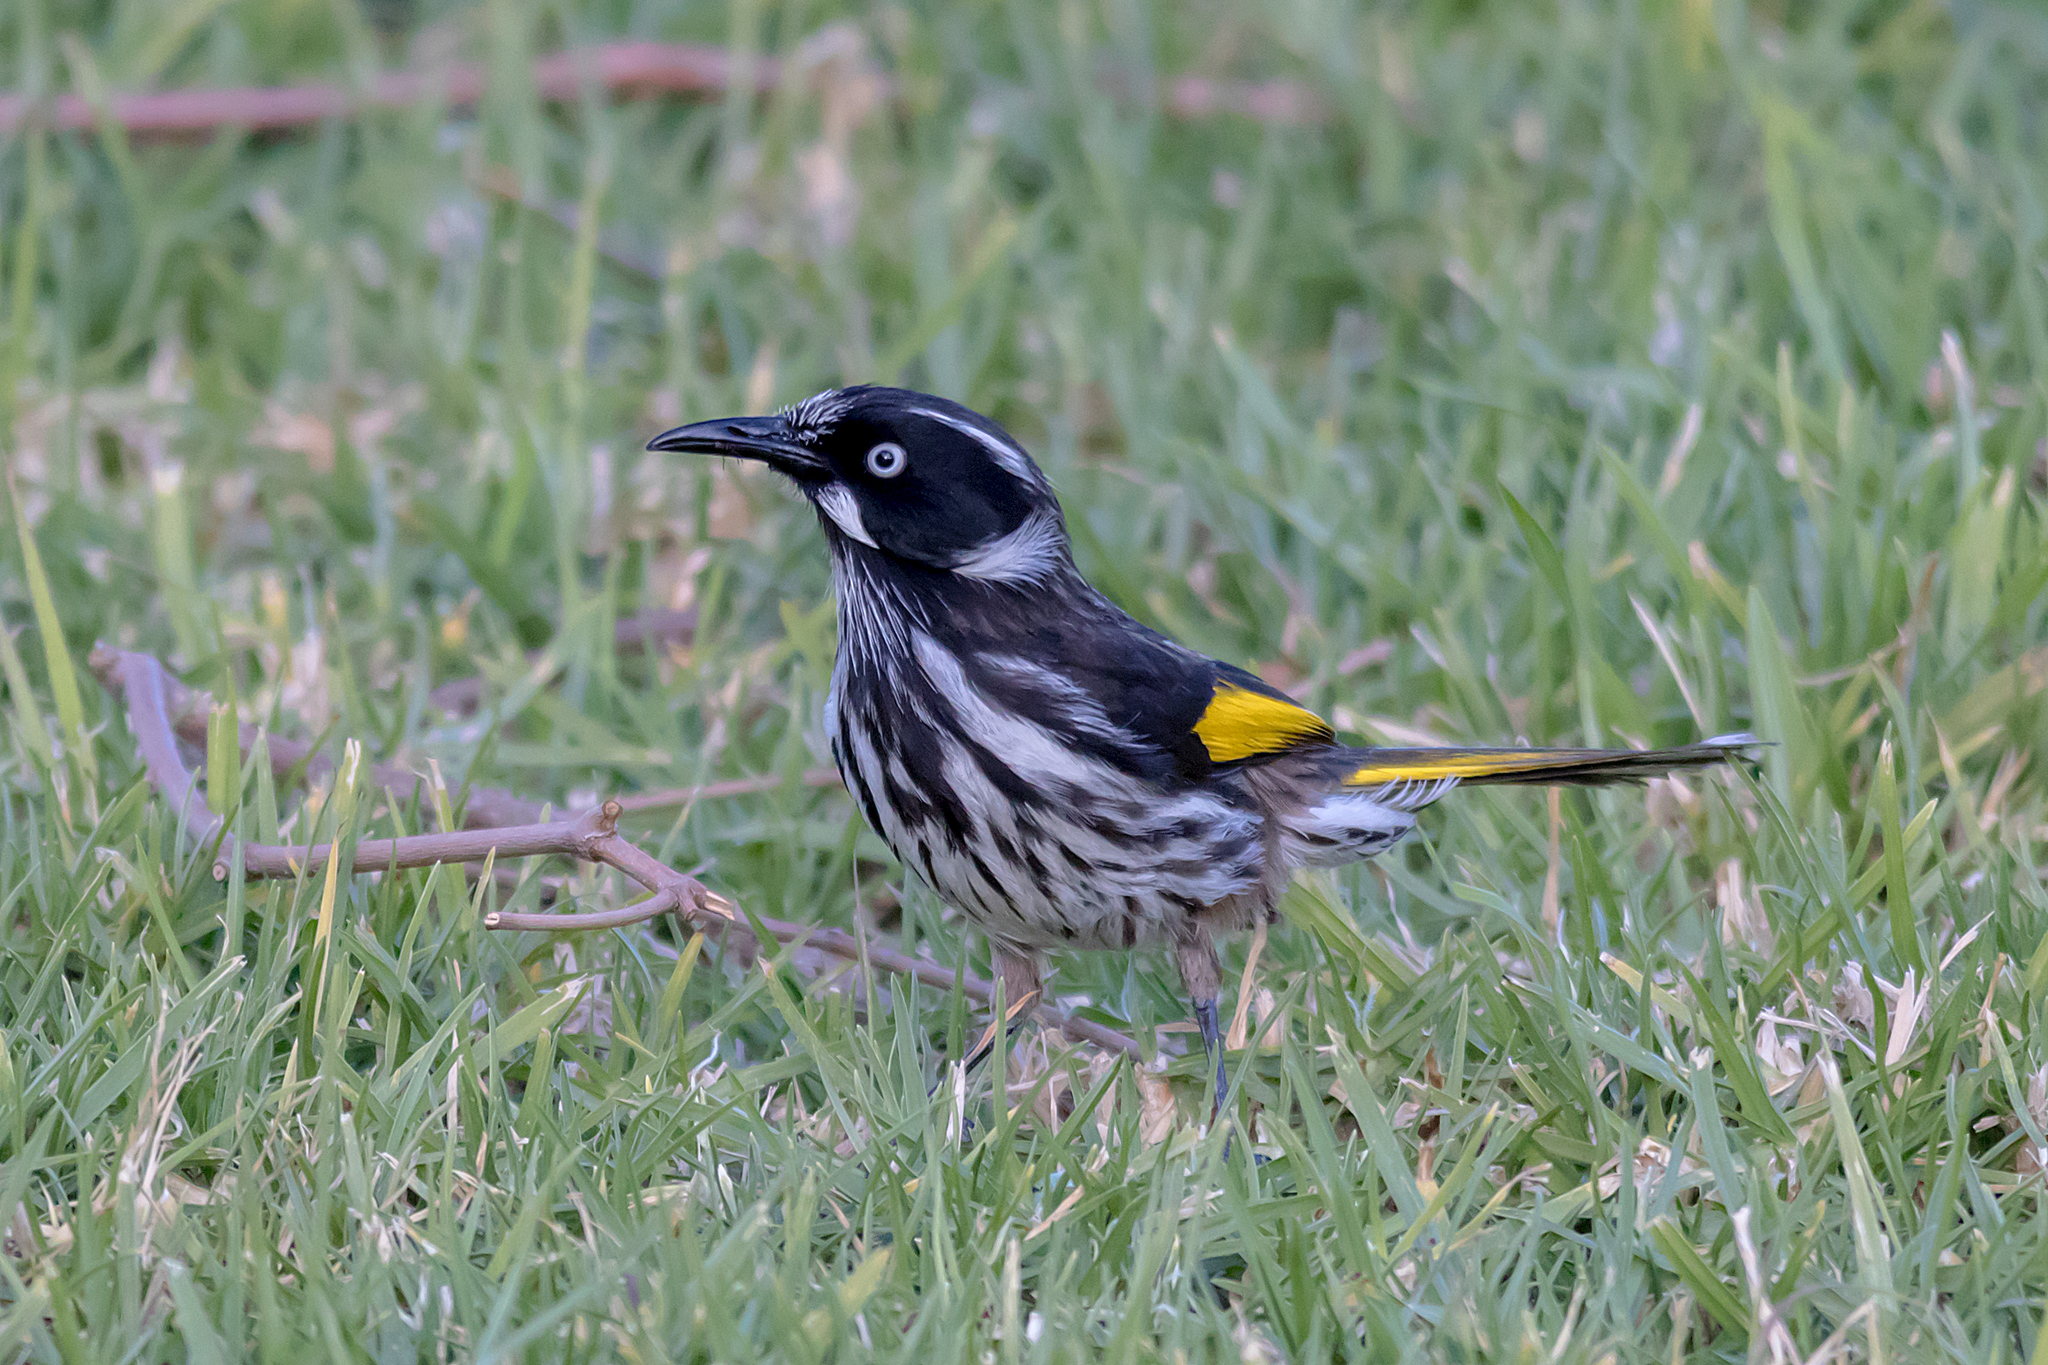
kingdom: Animalia
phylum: Chordata
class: Aves
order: Passeriformes
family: Meliphagidae
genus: Phylidonyris
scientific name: Phylidonyris novaehollandiae
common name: New holland honeyeater
